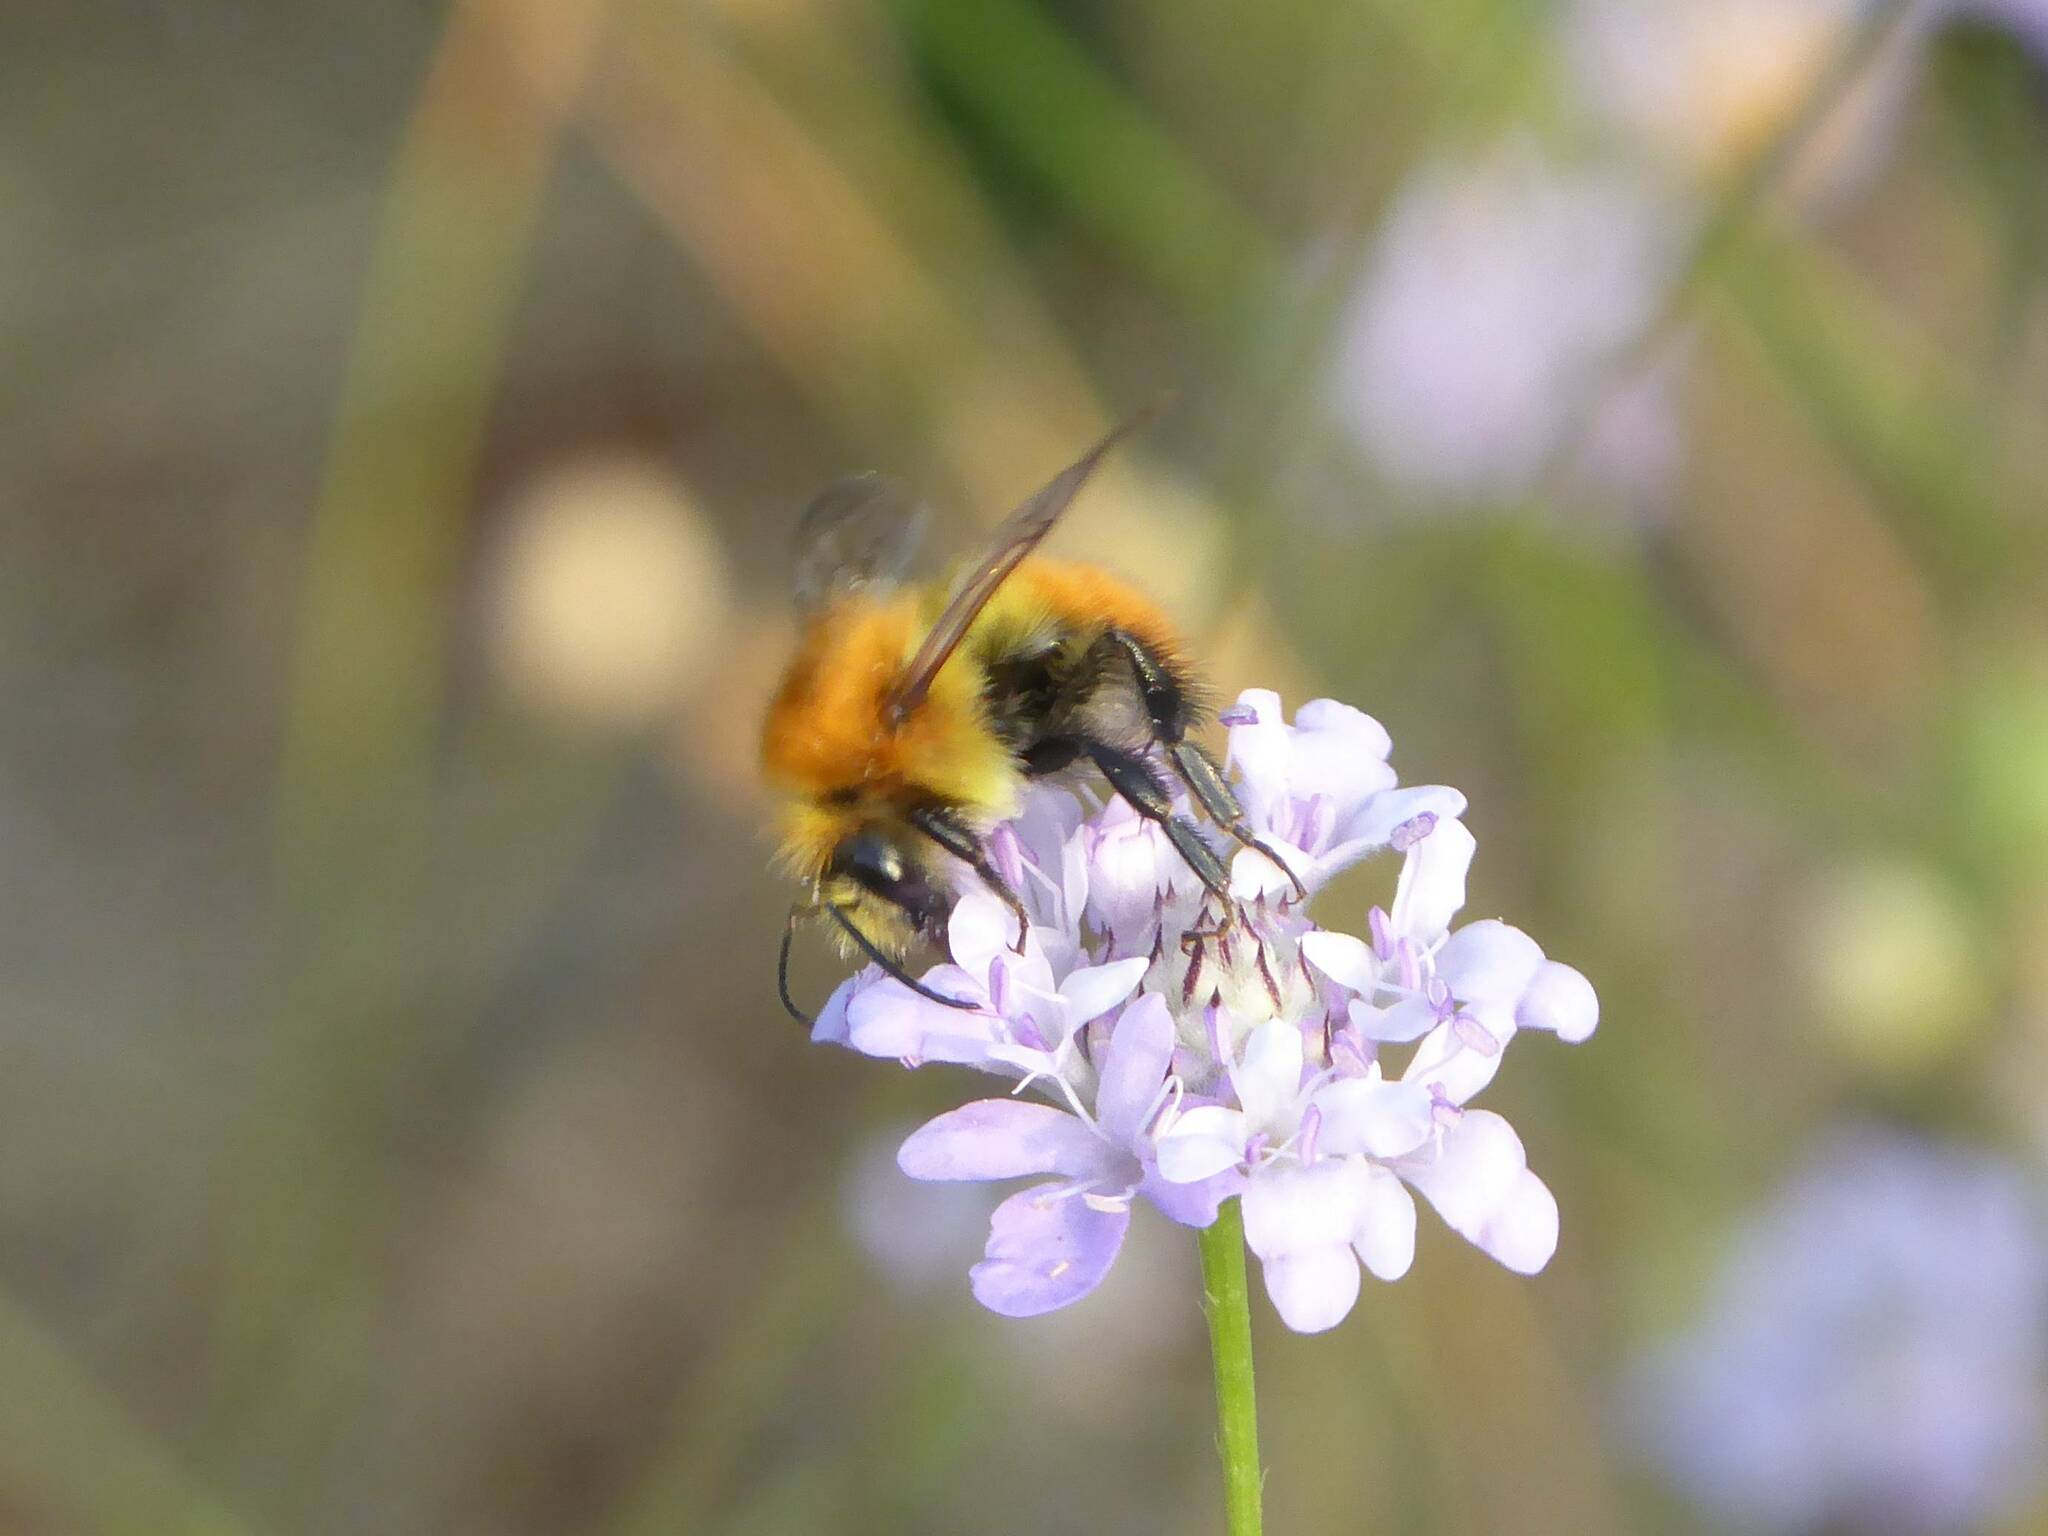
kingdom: Animalia
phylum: Arthropoda
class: Insecta
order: Hymenoptera
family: Apidae
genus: Bombus
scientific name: Bombus pascuorum
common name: Common carder bee
